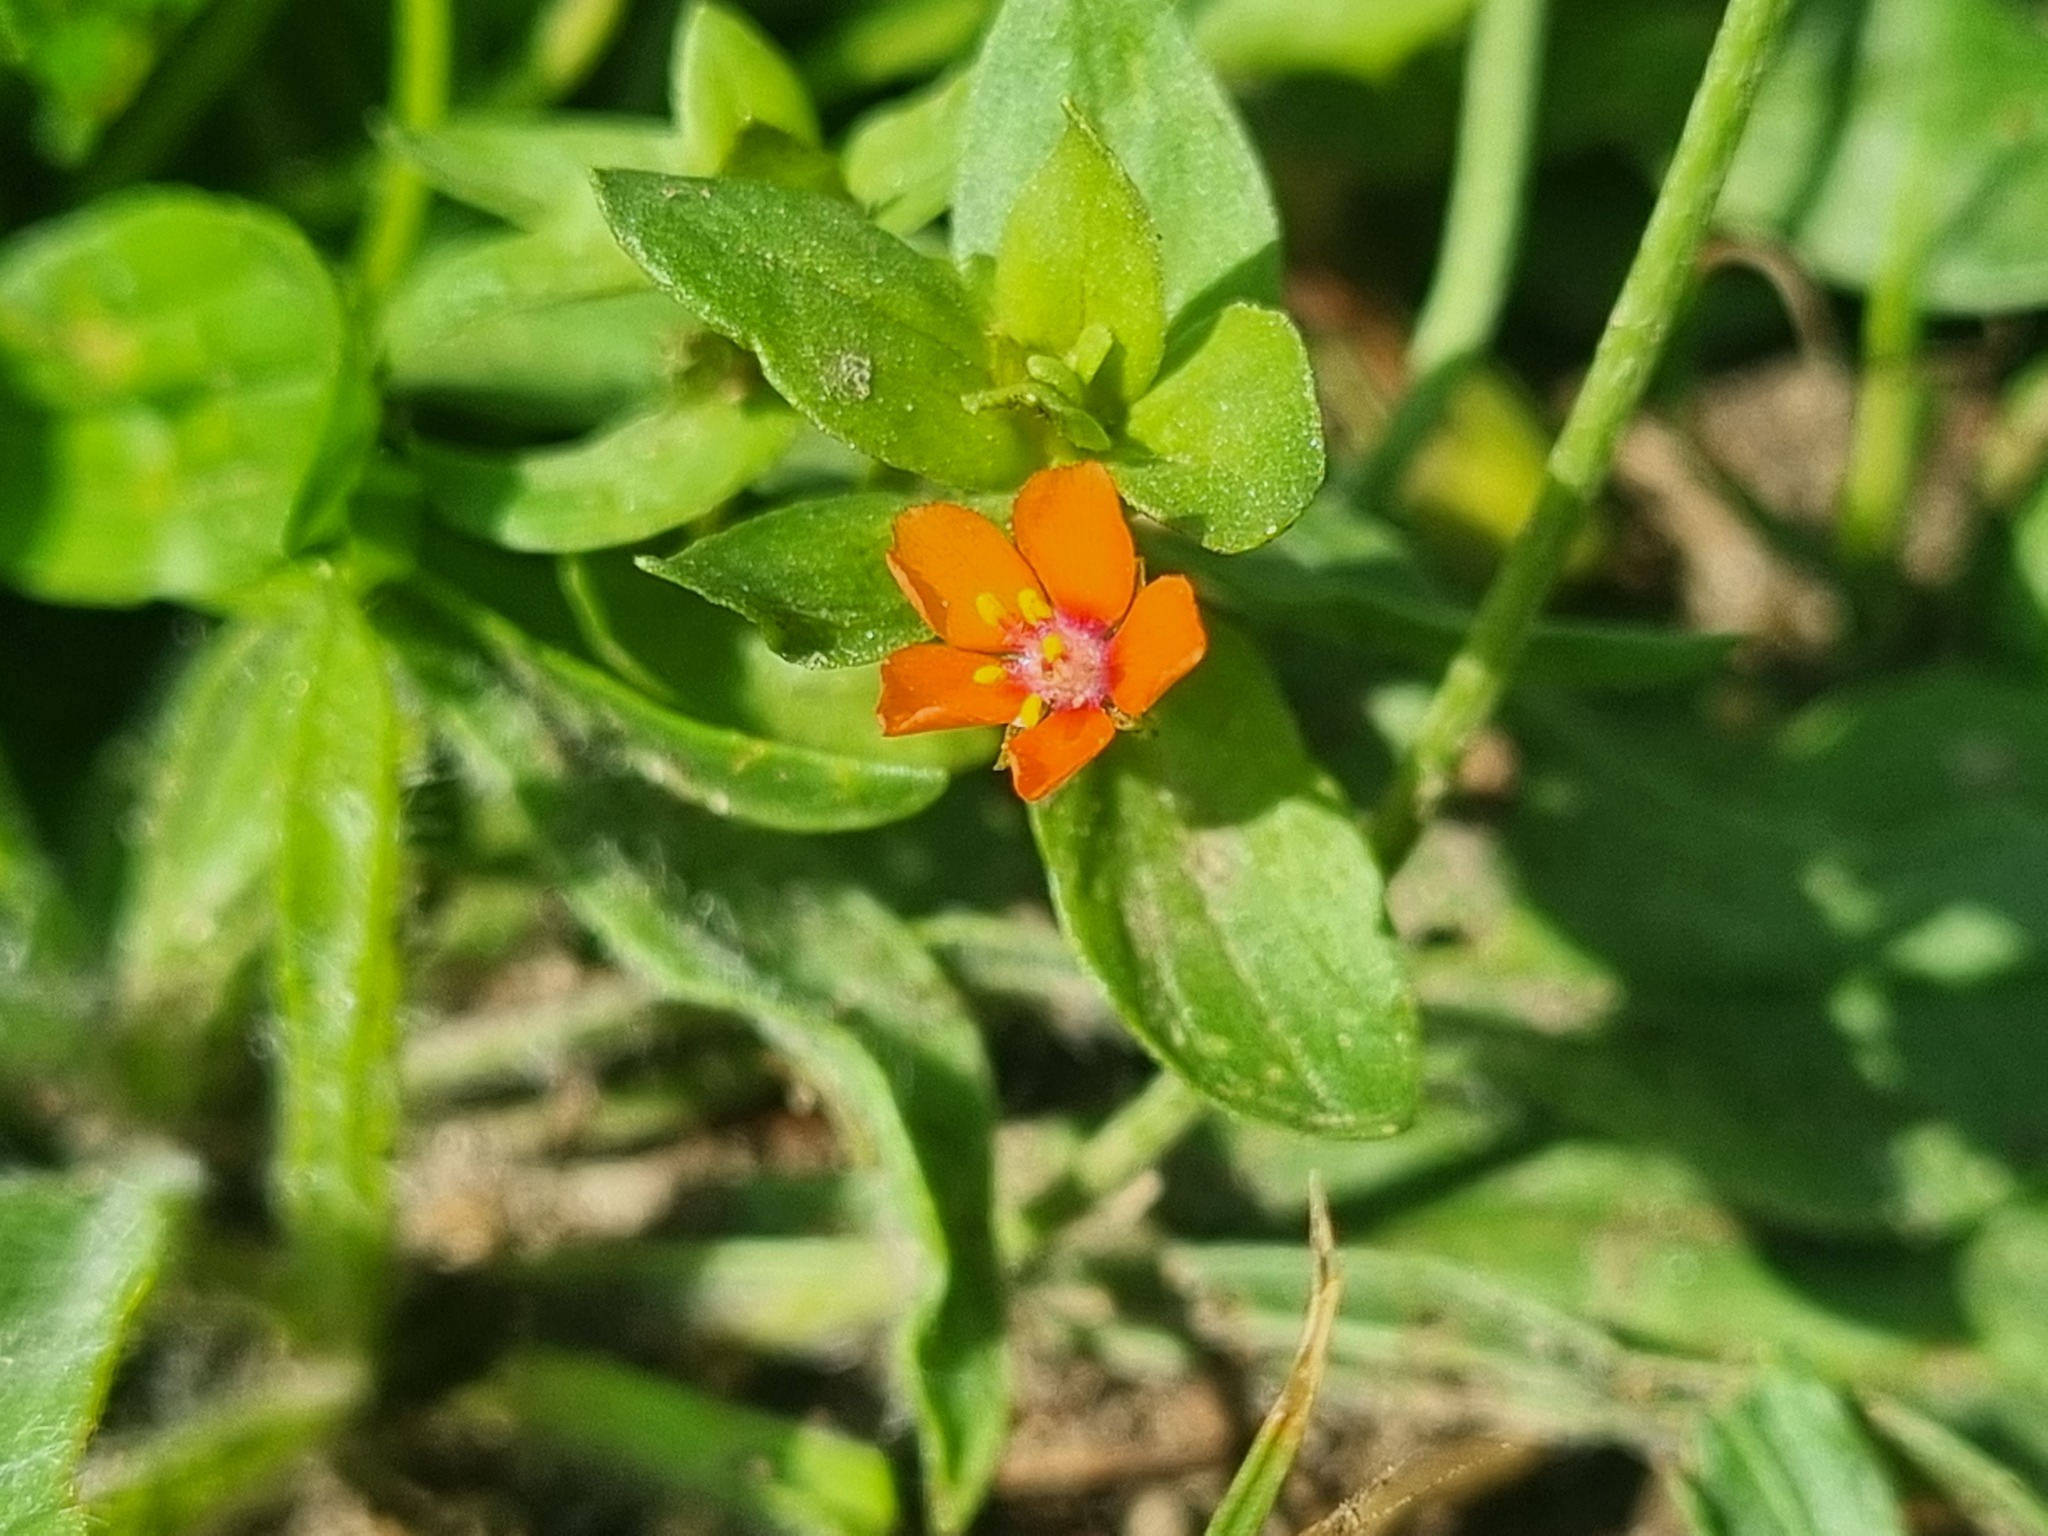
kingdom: Plantae
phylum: Tracheophyta
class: Magnoliopsida
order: Ericales
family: Primulaceae
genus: Lysimachia
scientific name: Lysimachia arvensis
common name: Scarlet pimpernel
